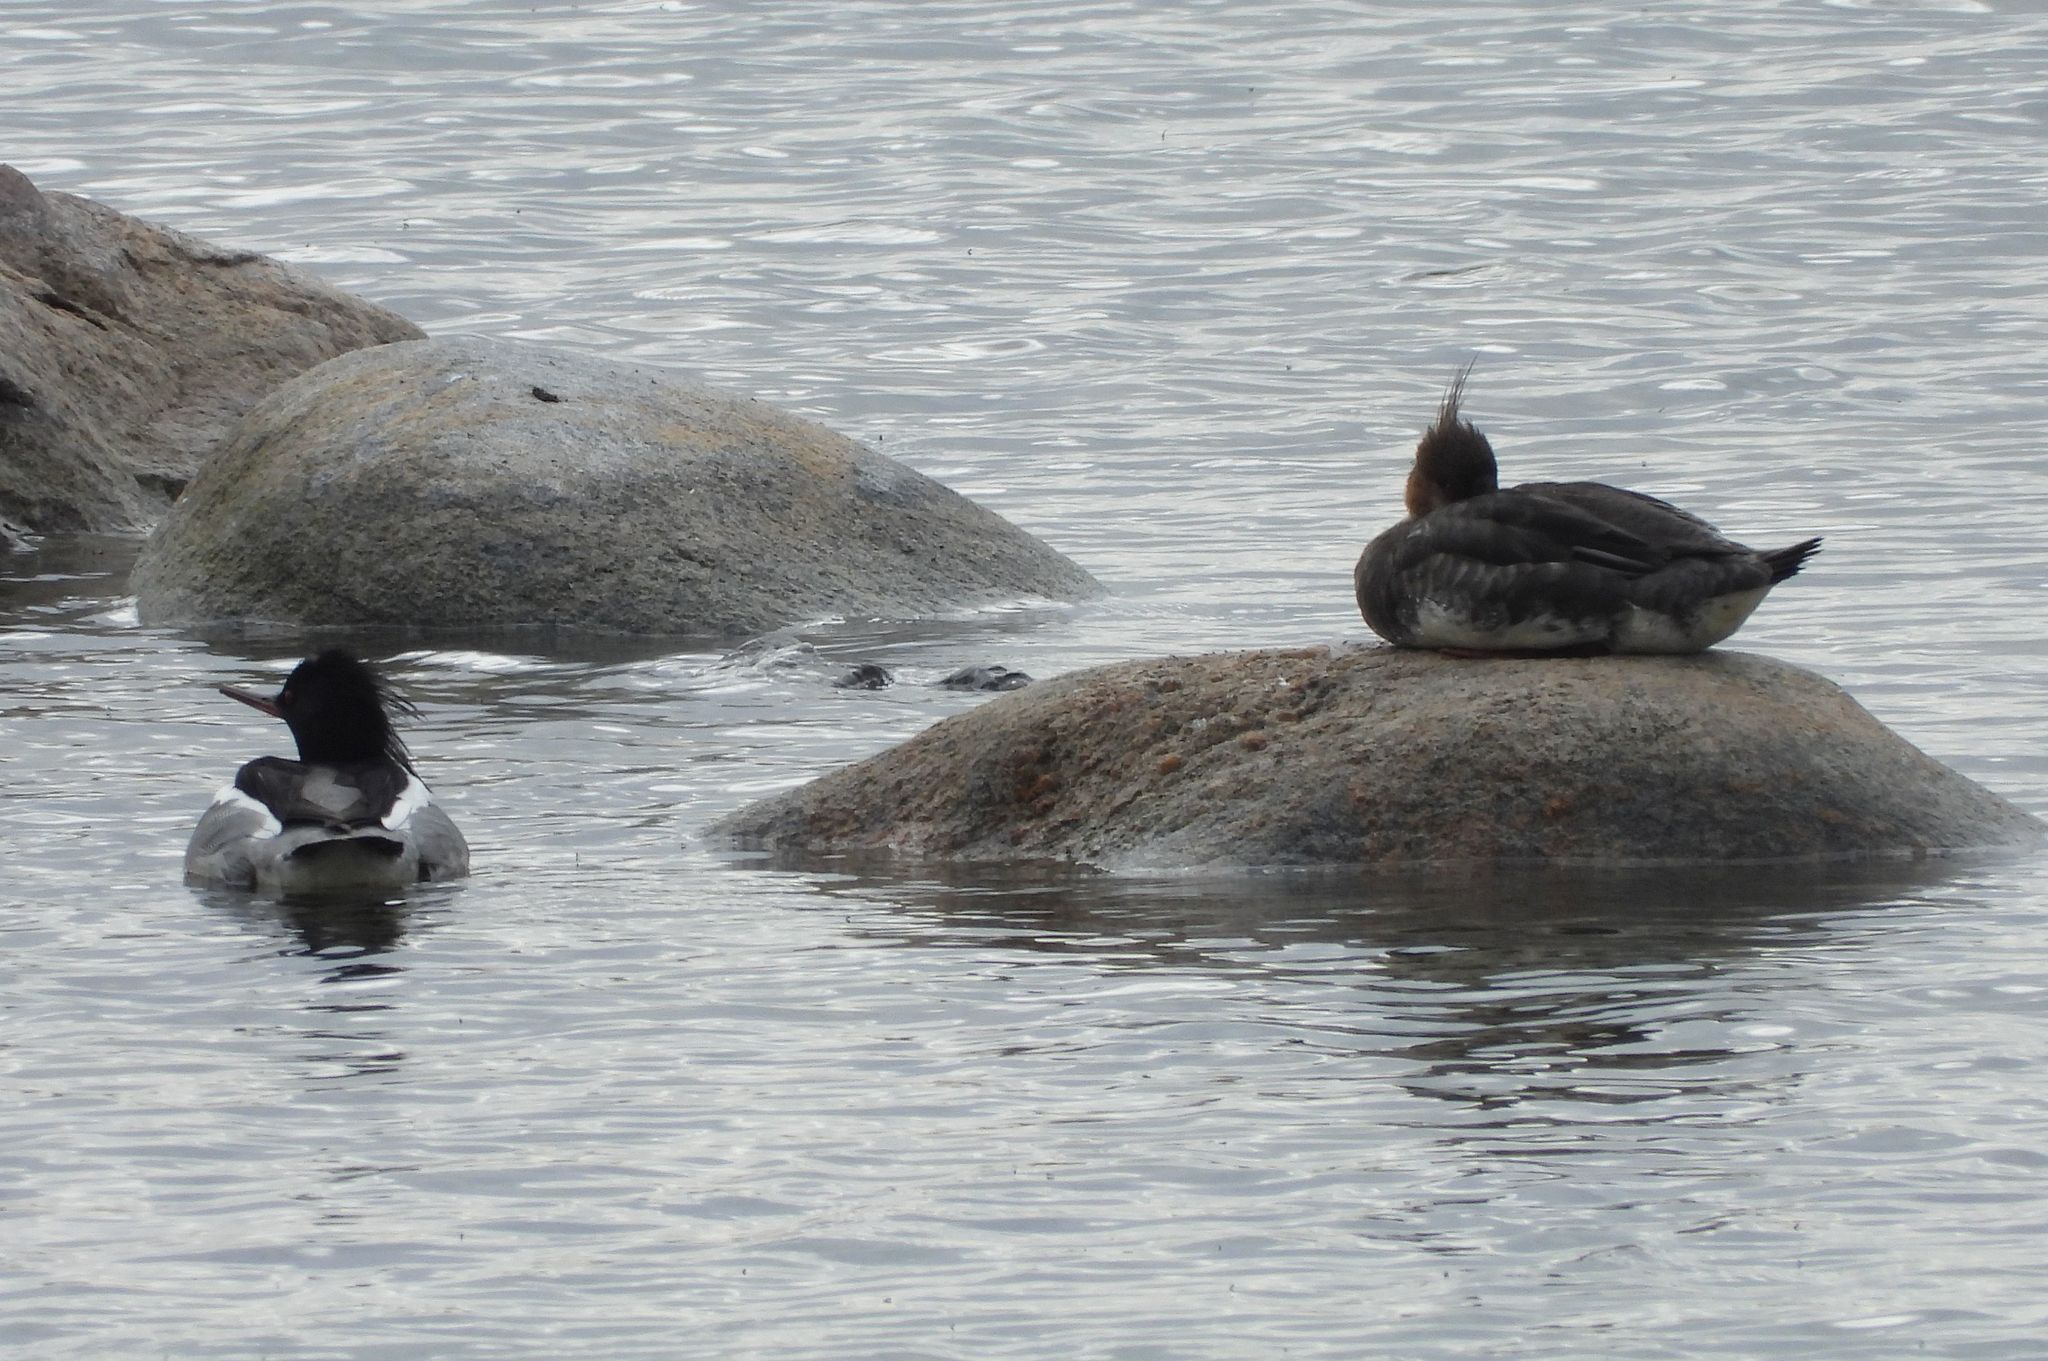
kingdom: Animalia
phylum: Chordata
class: Aves
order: Anseriformes
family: Anatidae
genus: Mergus
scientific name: Mergus serrator
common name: Red-breasted merganser
